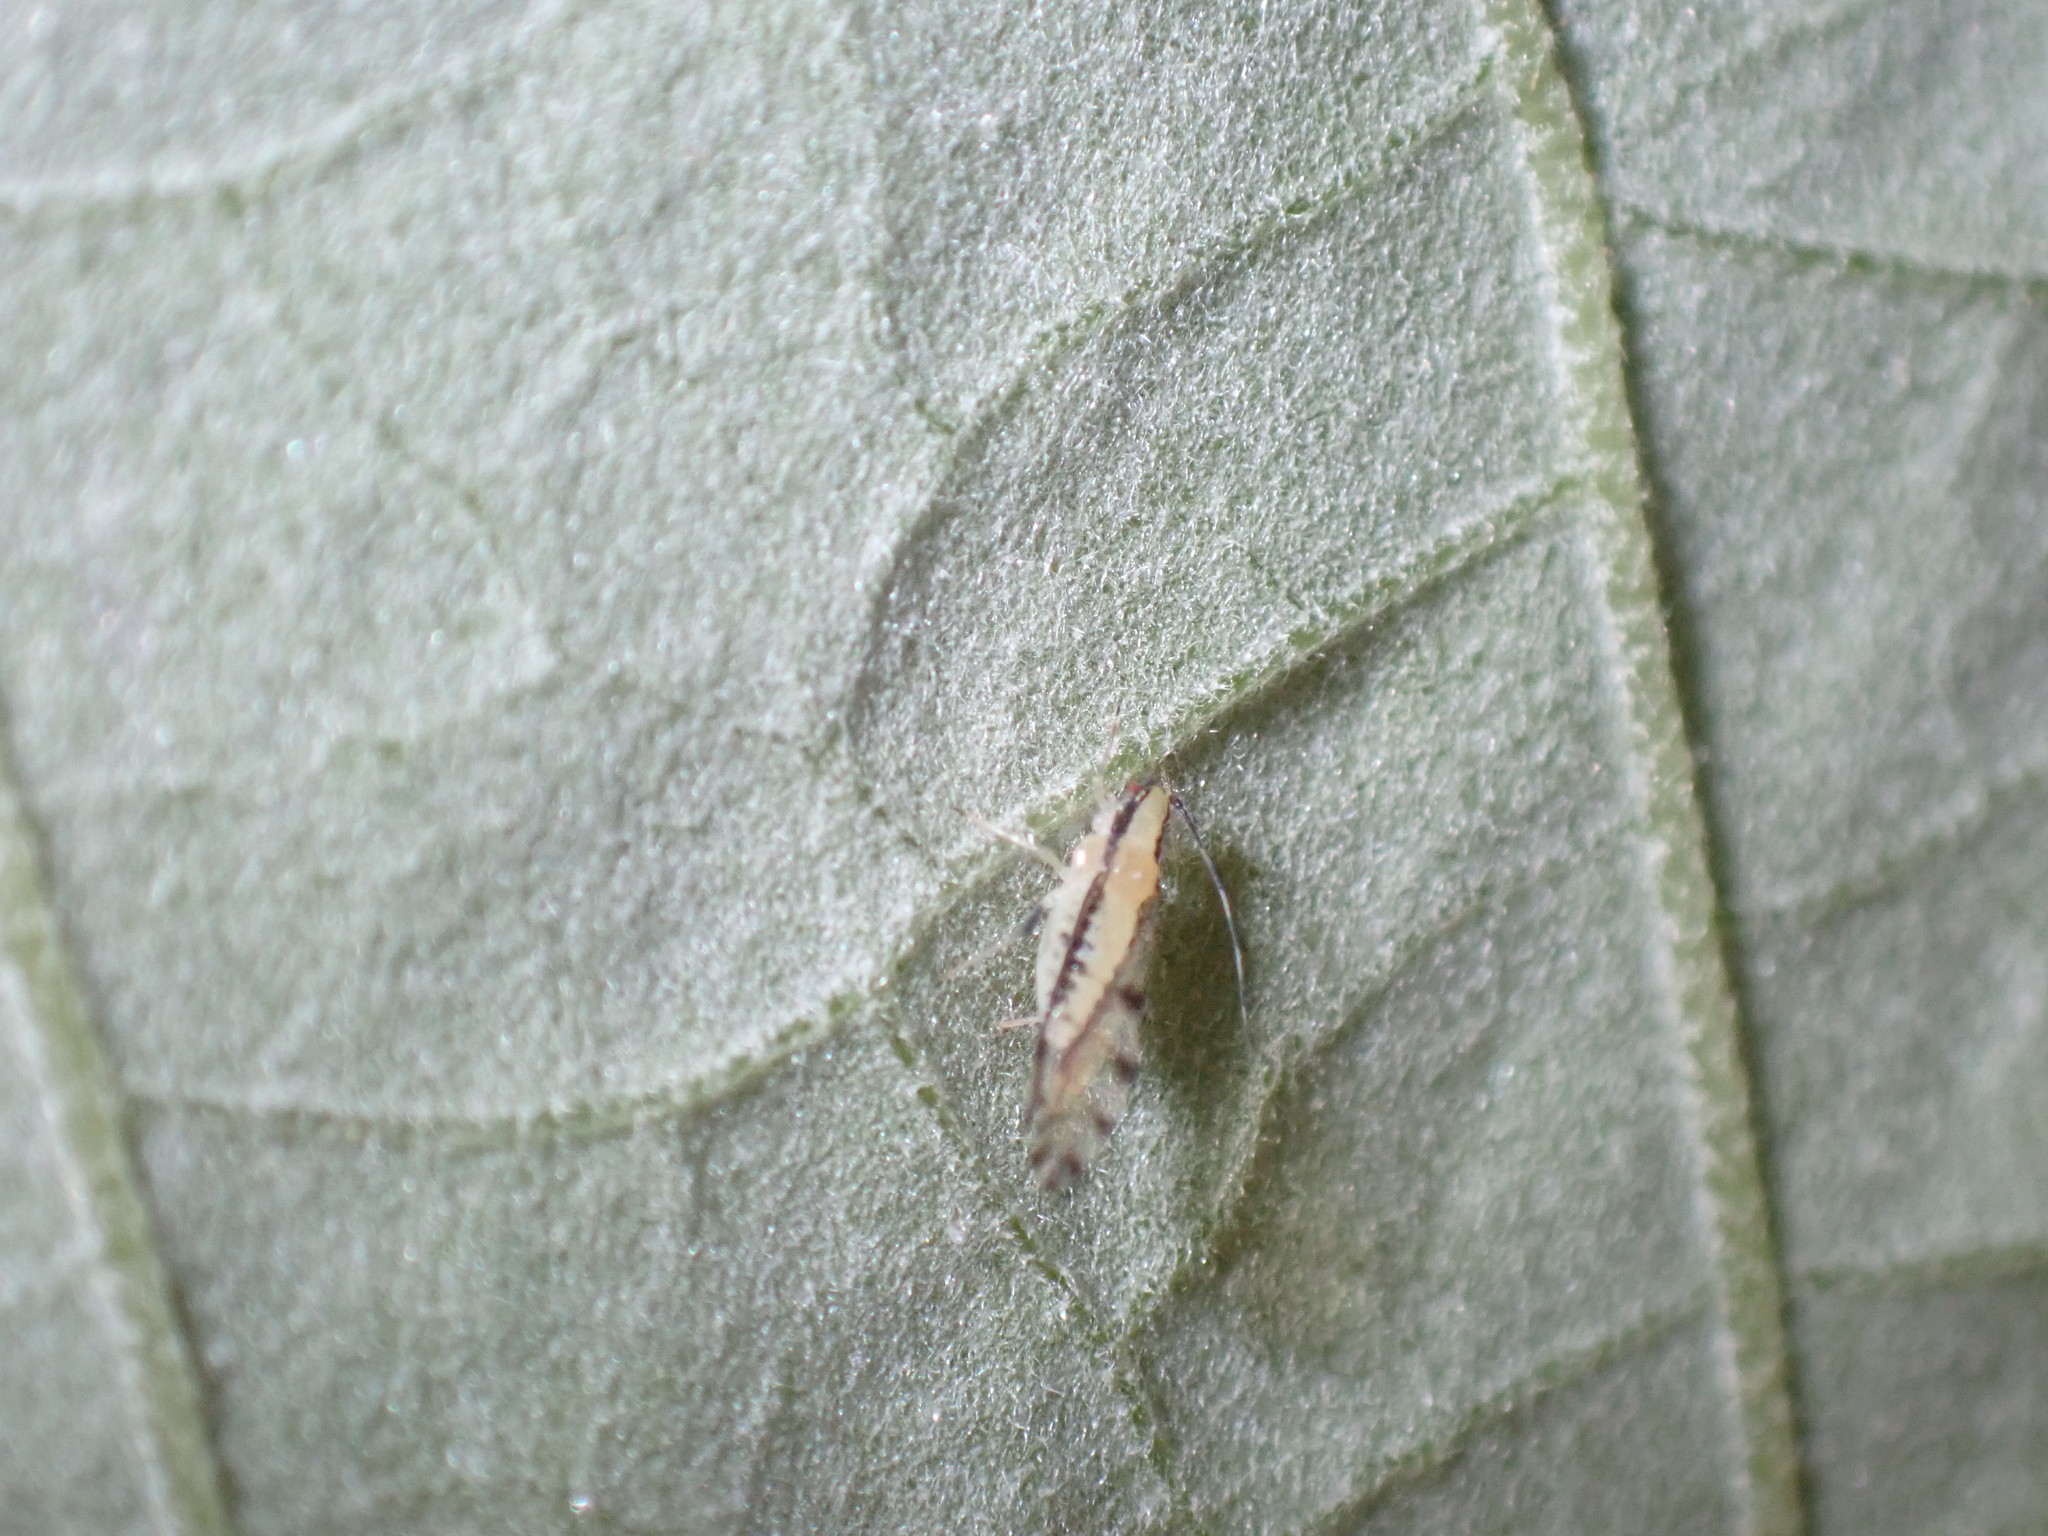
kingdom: Animalia
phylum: Arthropoda
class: Insecta
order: Hemiptera
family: Aphididae
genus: Eucallipterus
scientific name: Eucallipterus tiliae
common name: Aphid
